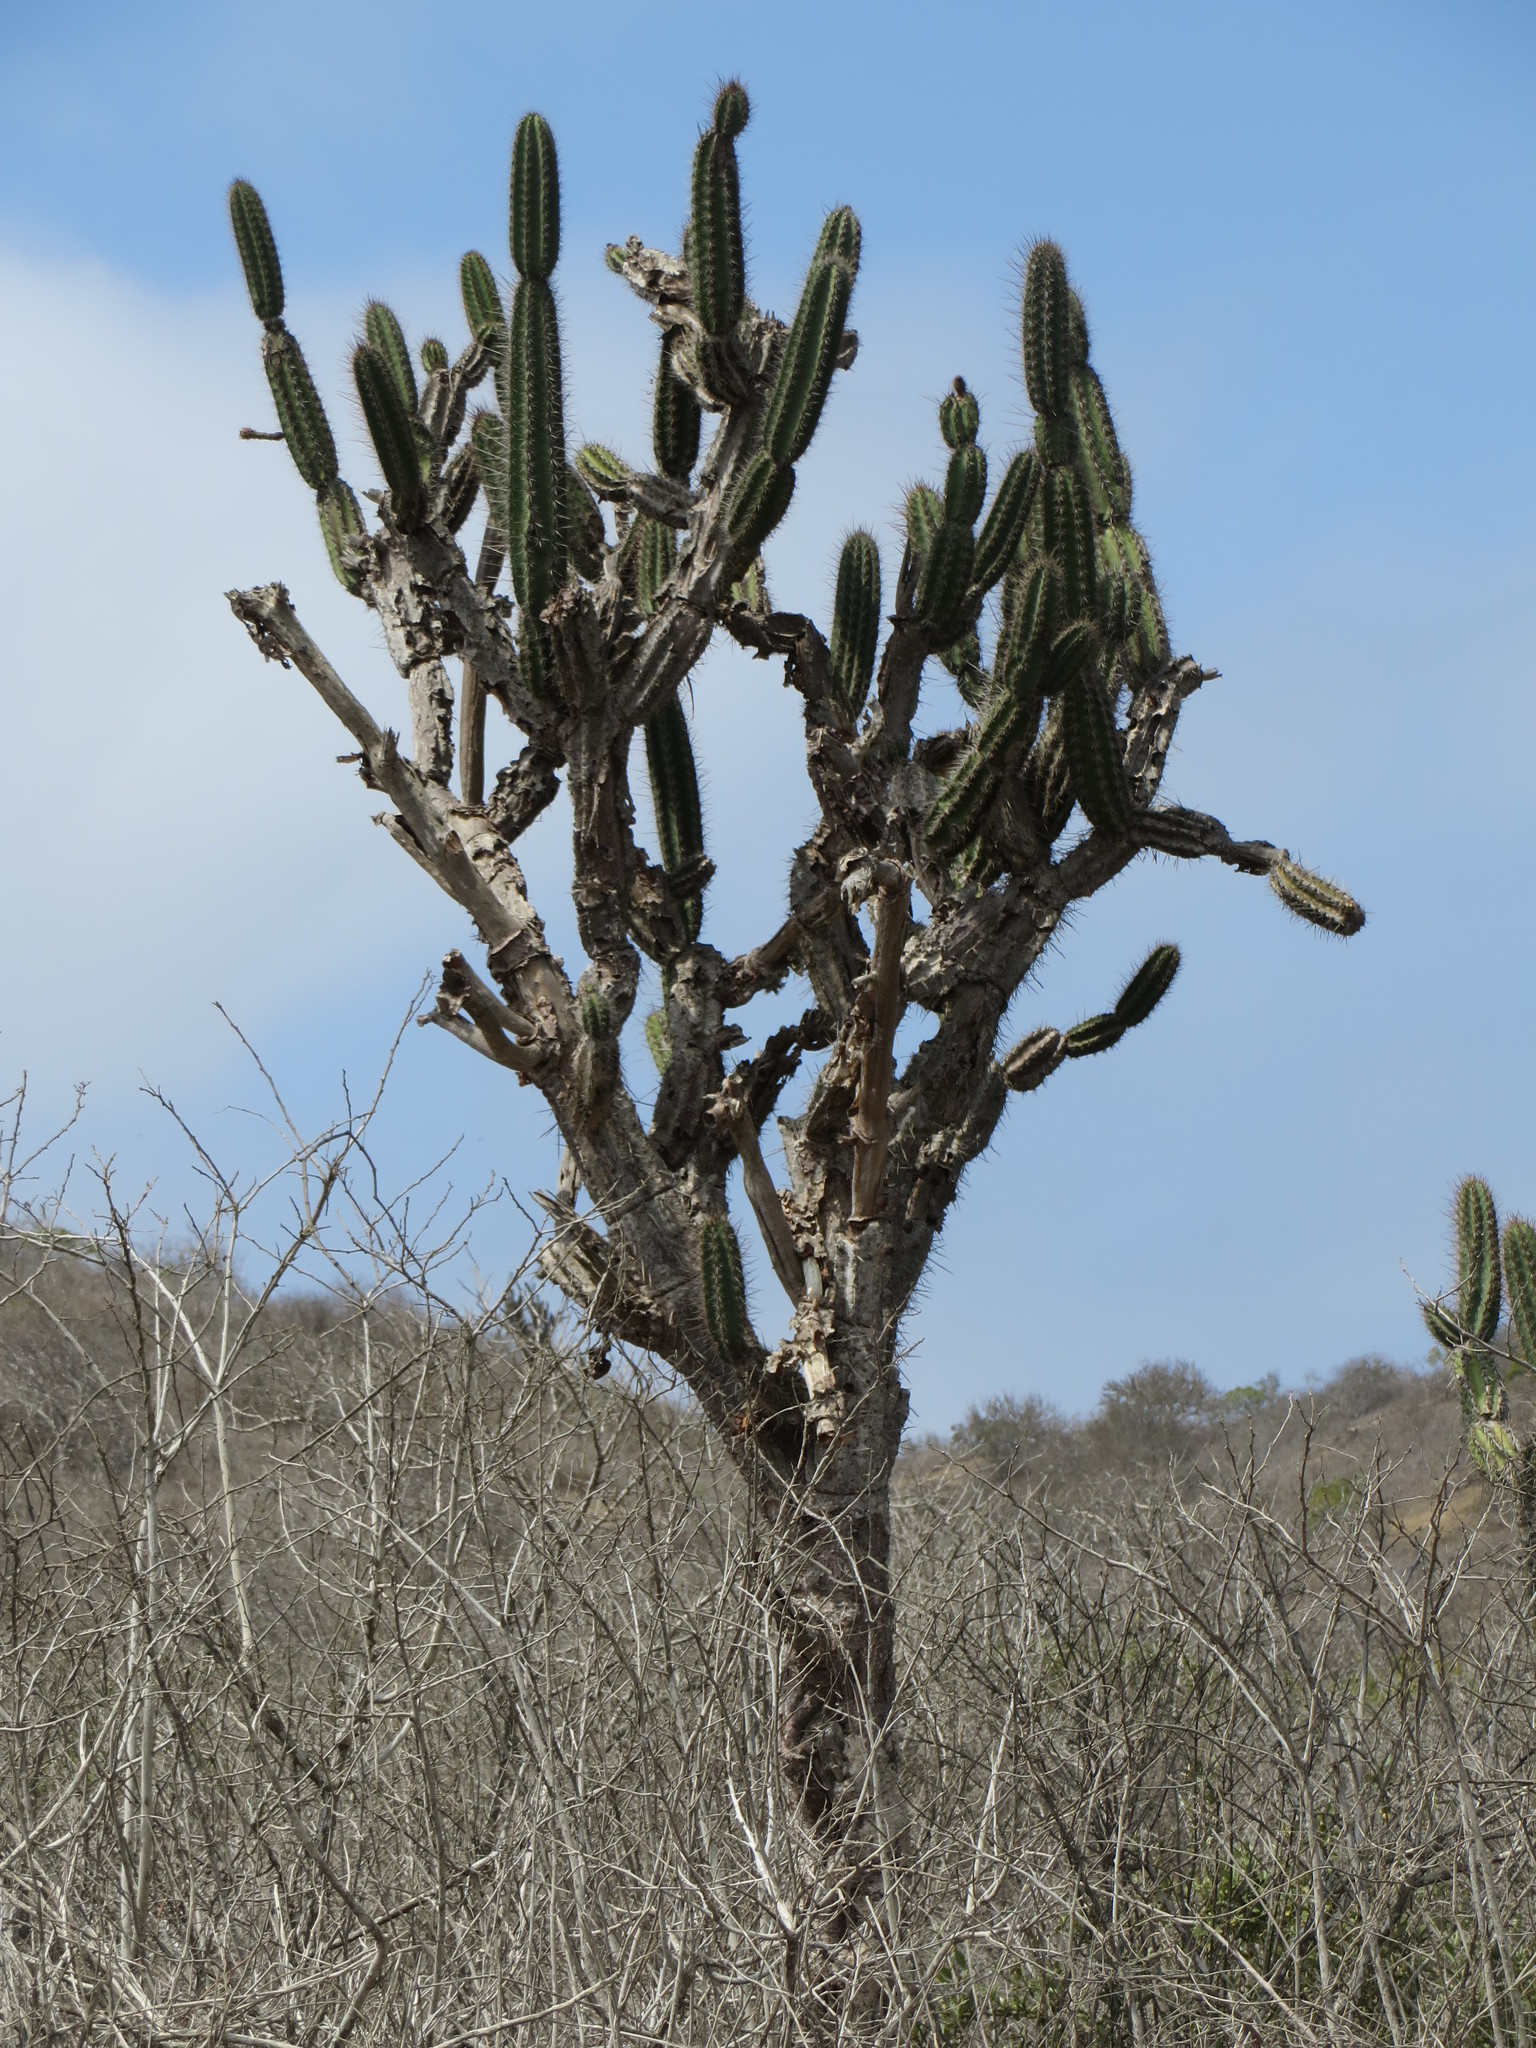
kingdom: Plantae
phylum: Tracheophyta
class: Magnoliopsida
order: Caryophyllales
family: Cactaceae
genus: Armatocereus
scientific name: Armatocereus cartwrightianus
